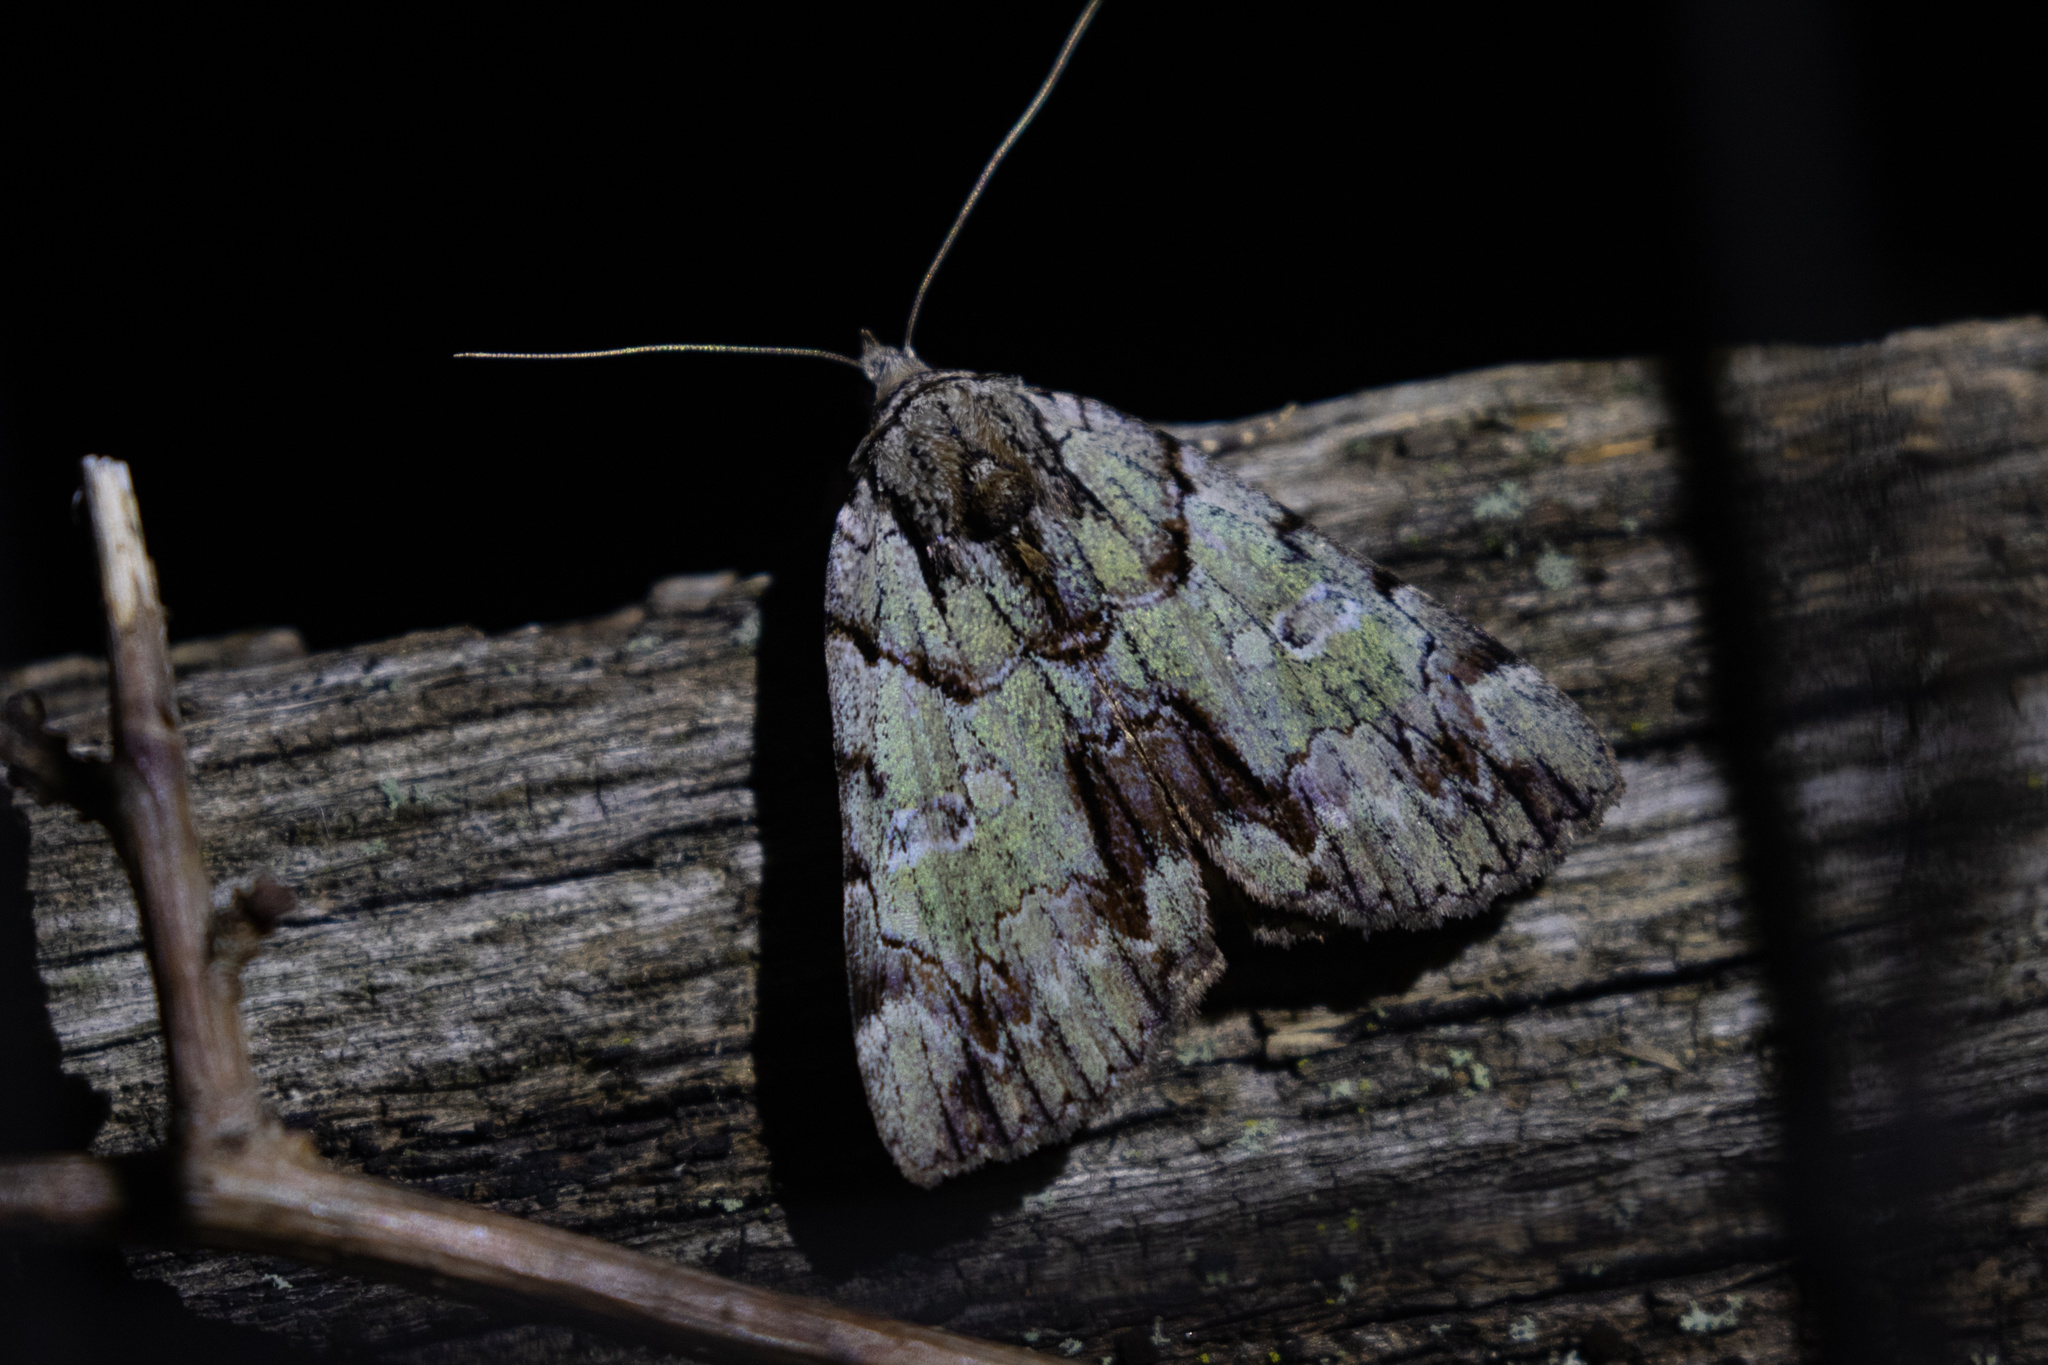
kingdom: Animalia
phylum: Arthropoda
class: Insecta
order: Lepidoptera
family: Erebidae
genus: Catocala
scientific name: Catocala praeclara
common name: Praeclara underwing
